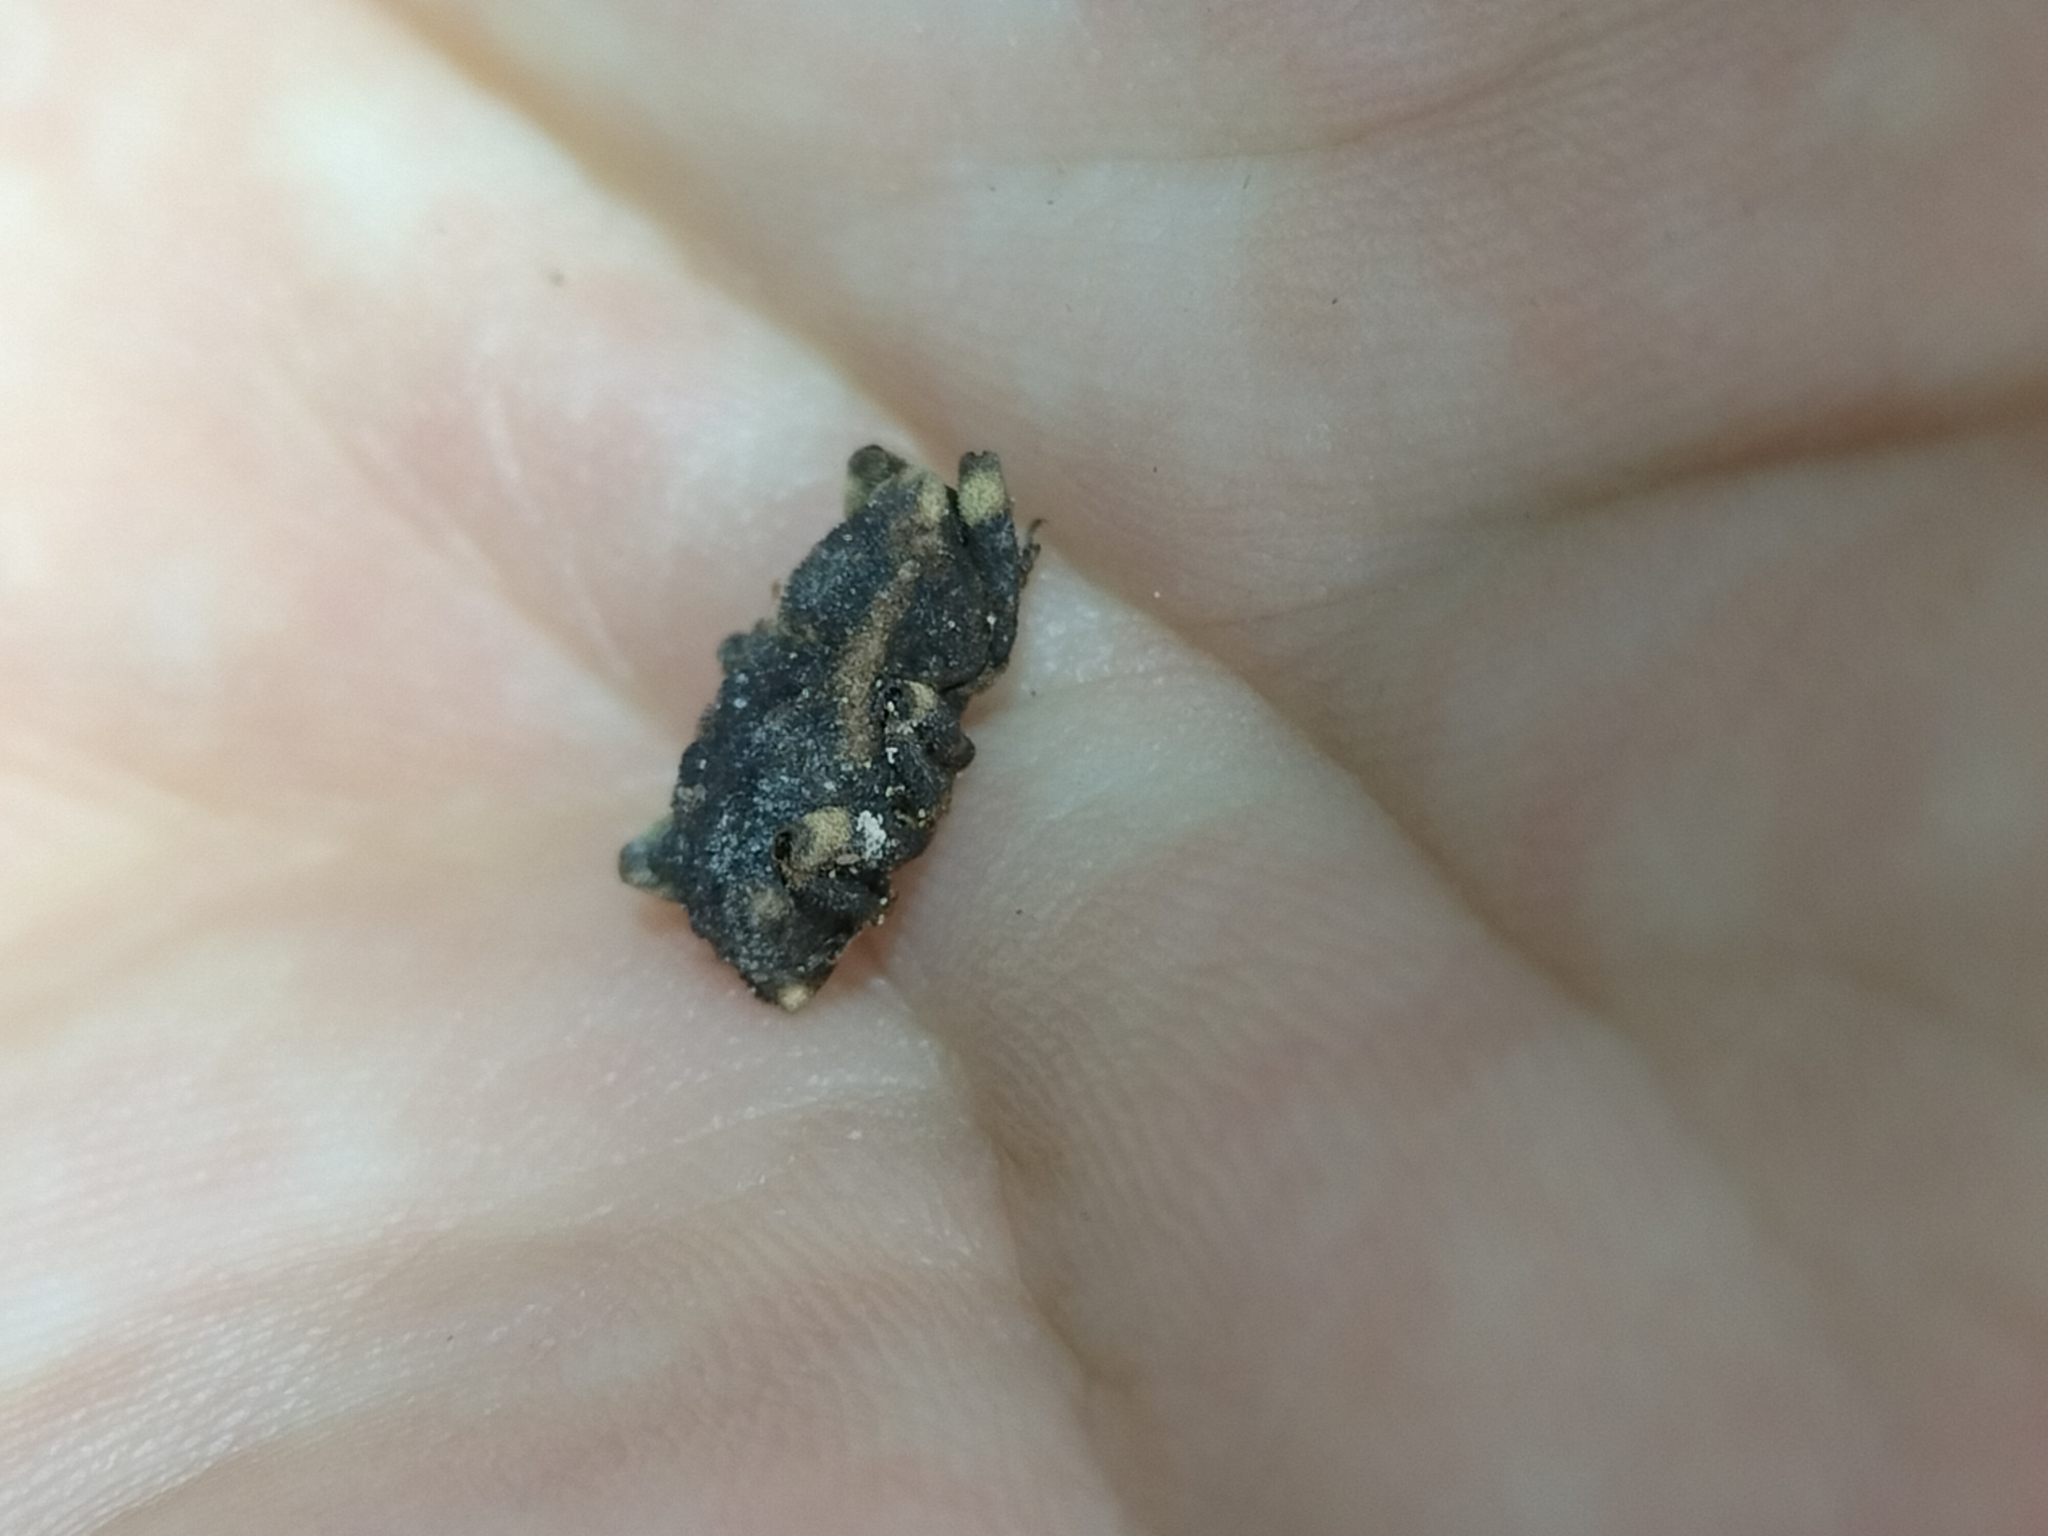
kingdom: Animalia
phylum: Arthropoda
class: Insecta
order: Coleoptera
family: Curculionidae
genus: Poropterus
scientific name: Poropterus latipennis
